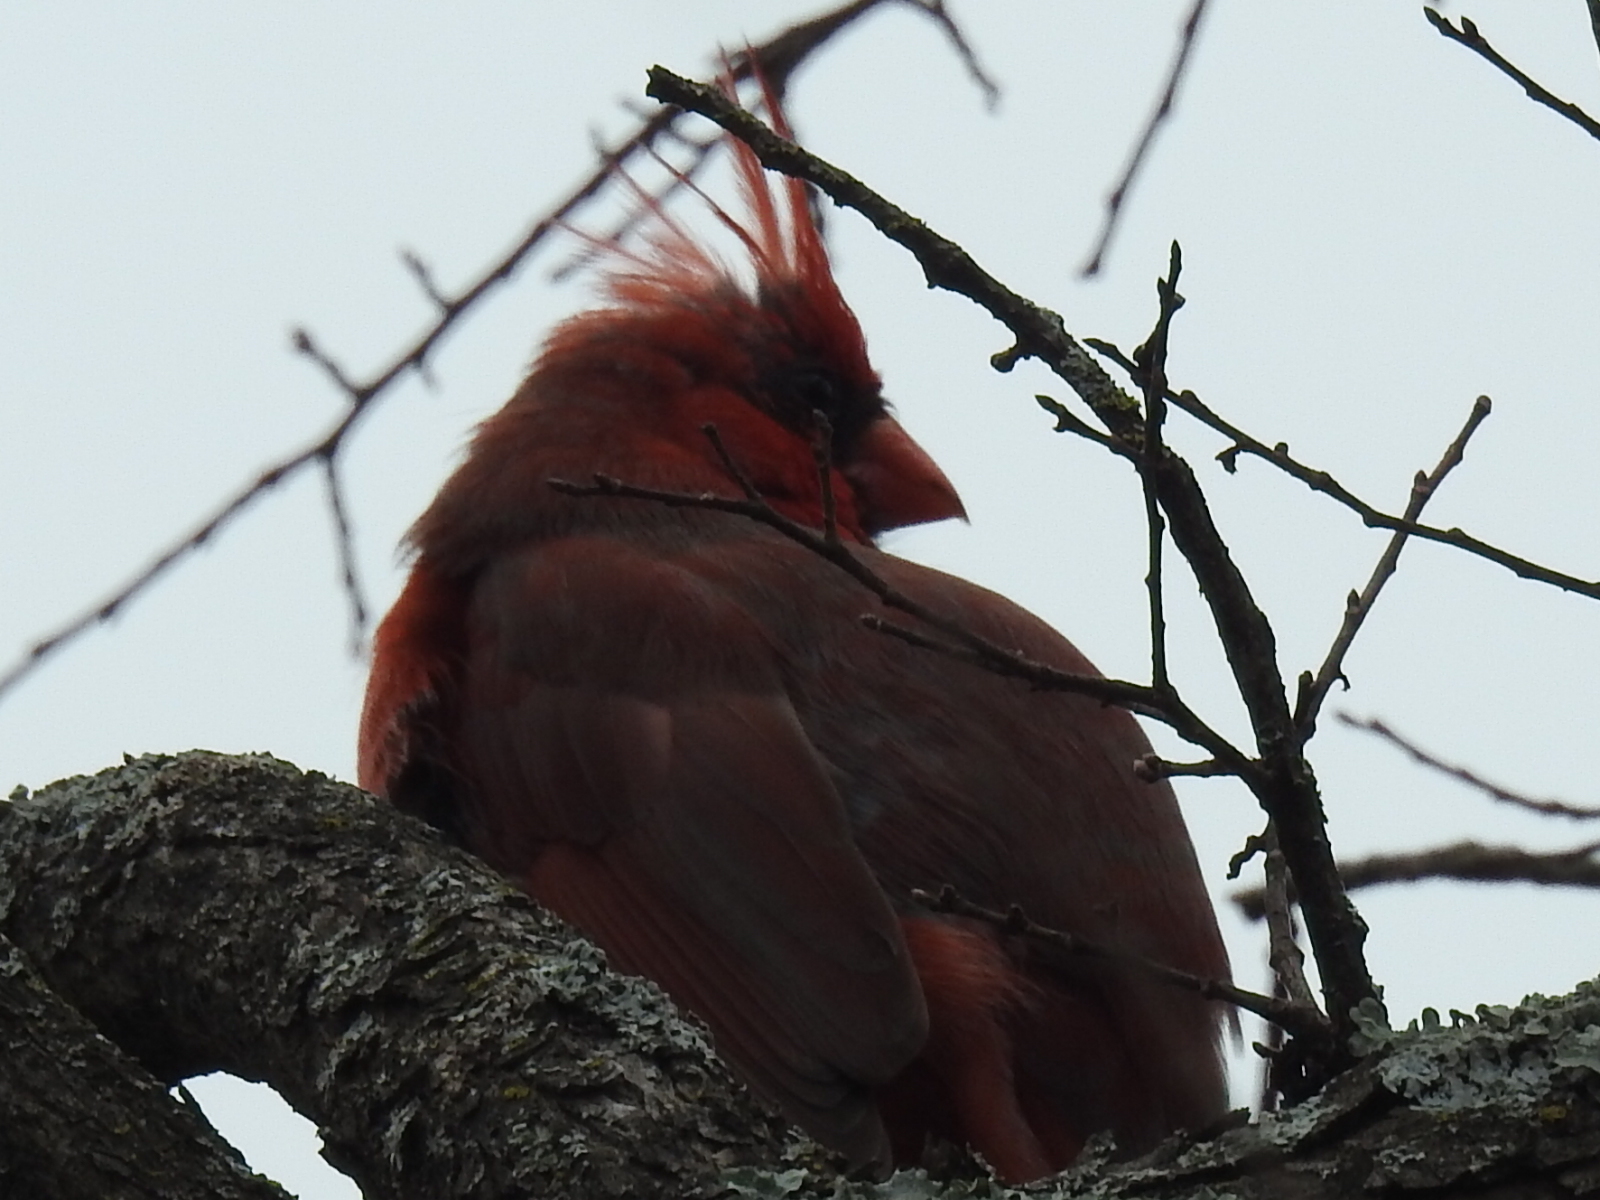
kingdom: Animalia
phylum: Chordata
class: Aves
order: Passeriformes
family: Cardinalidae
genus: Cardinalis
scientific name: Cardinalis cardinalis
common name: Northern cardinal
